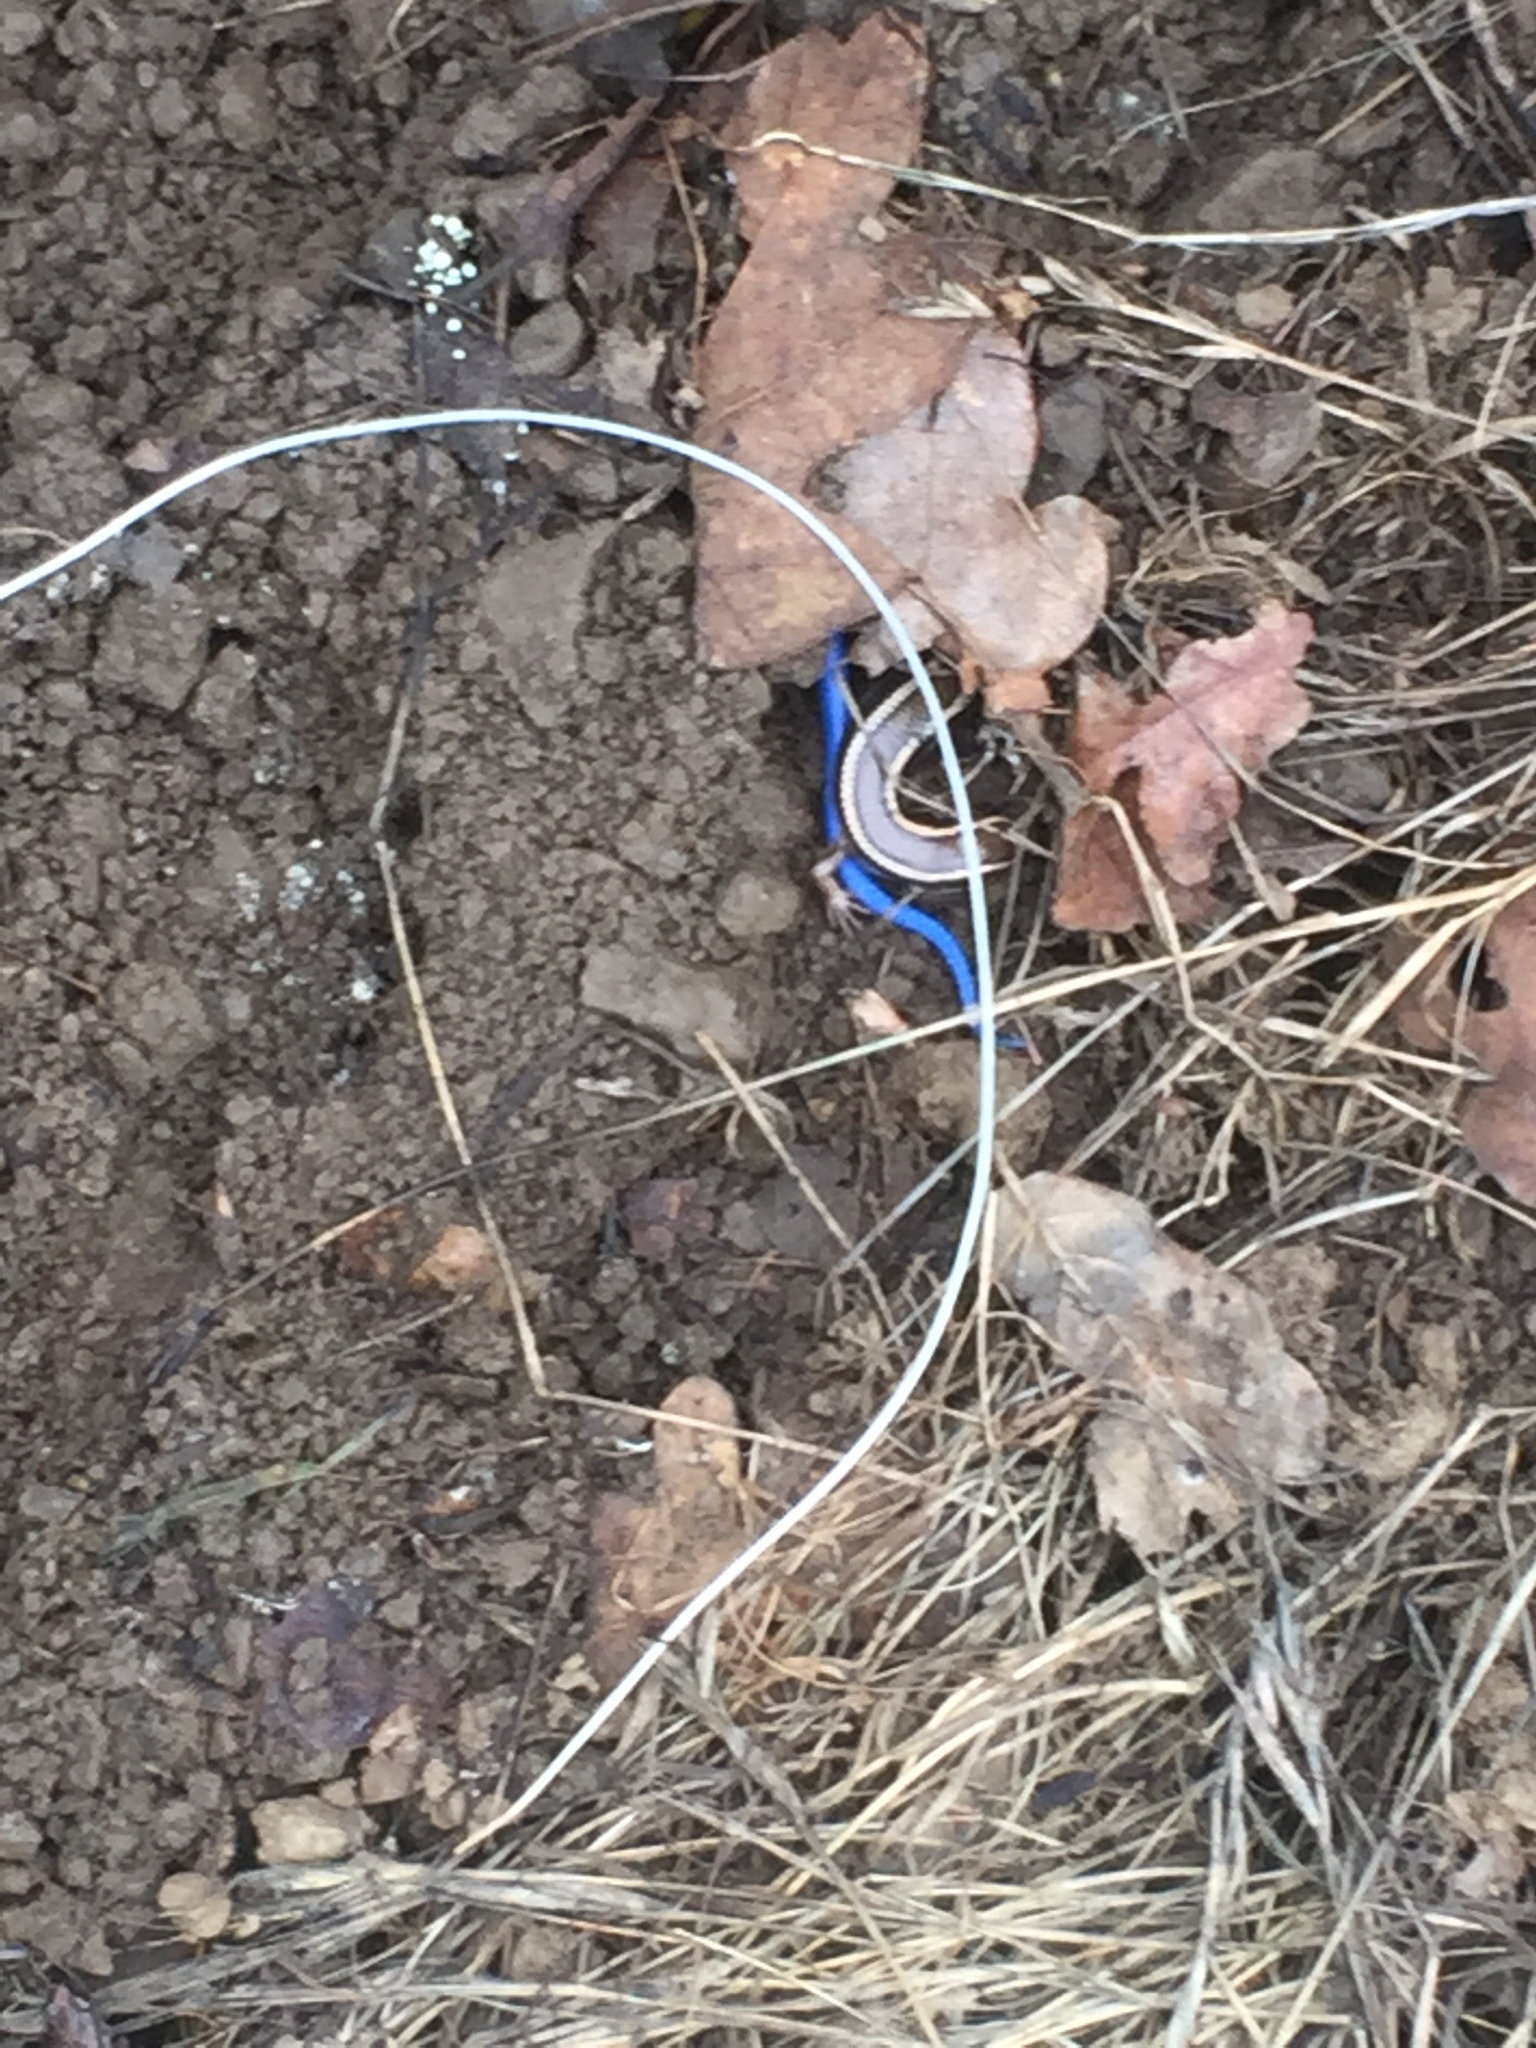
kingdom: Animalia
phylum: Chordata
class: Squamata
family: Scincidae
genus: Plestiodon
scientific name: Plestiodon skiltonianus
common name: Coronado island skink [interparietalis]
